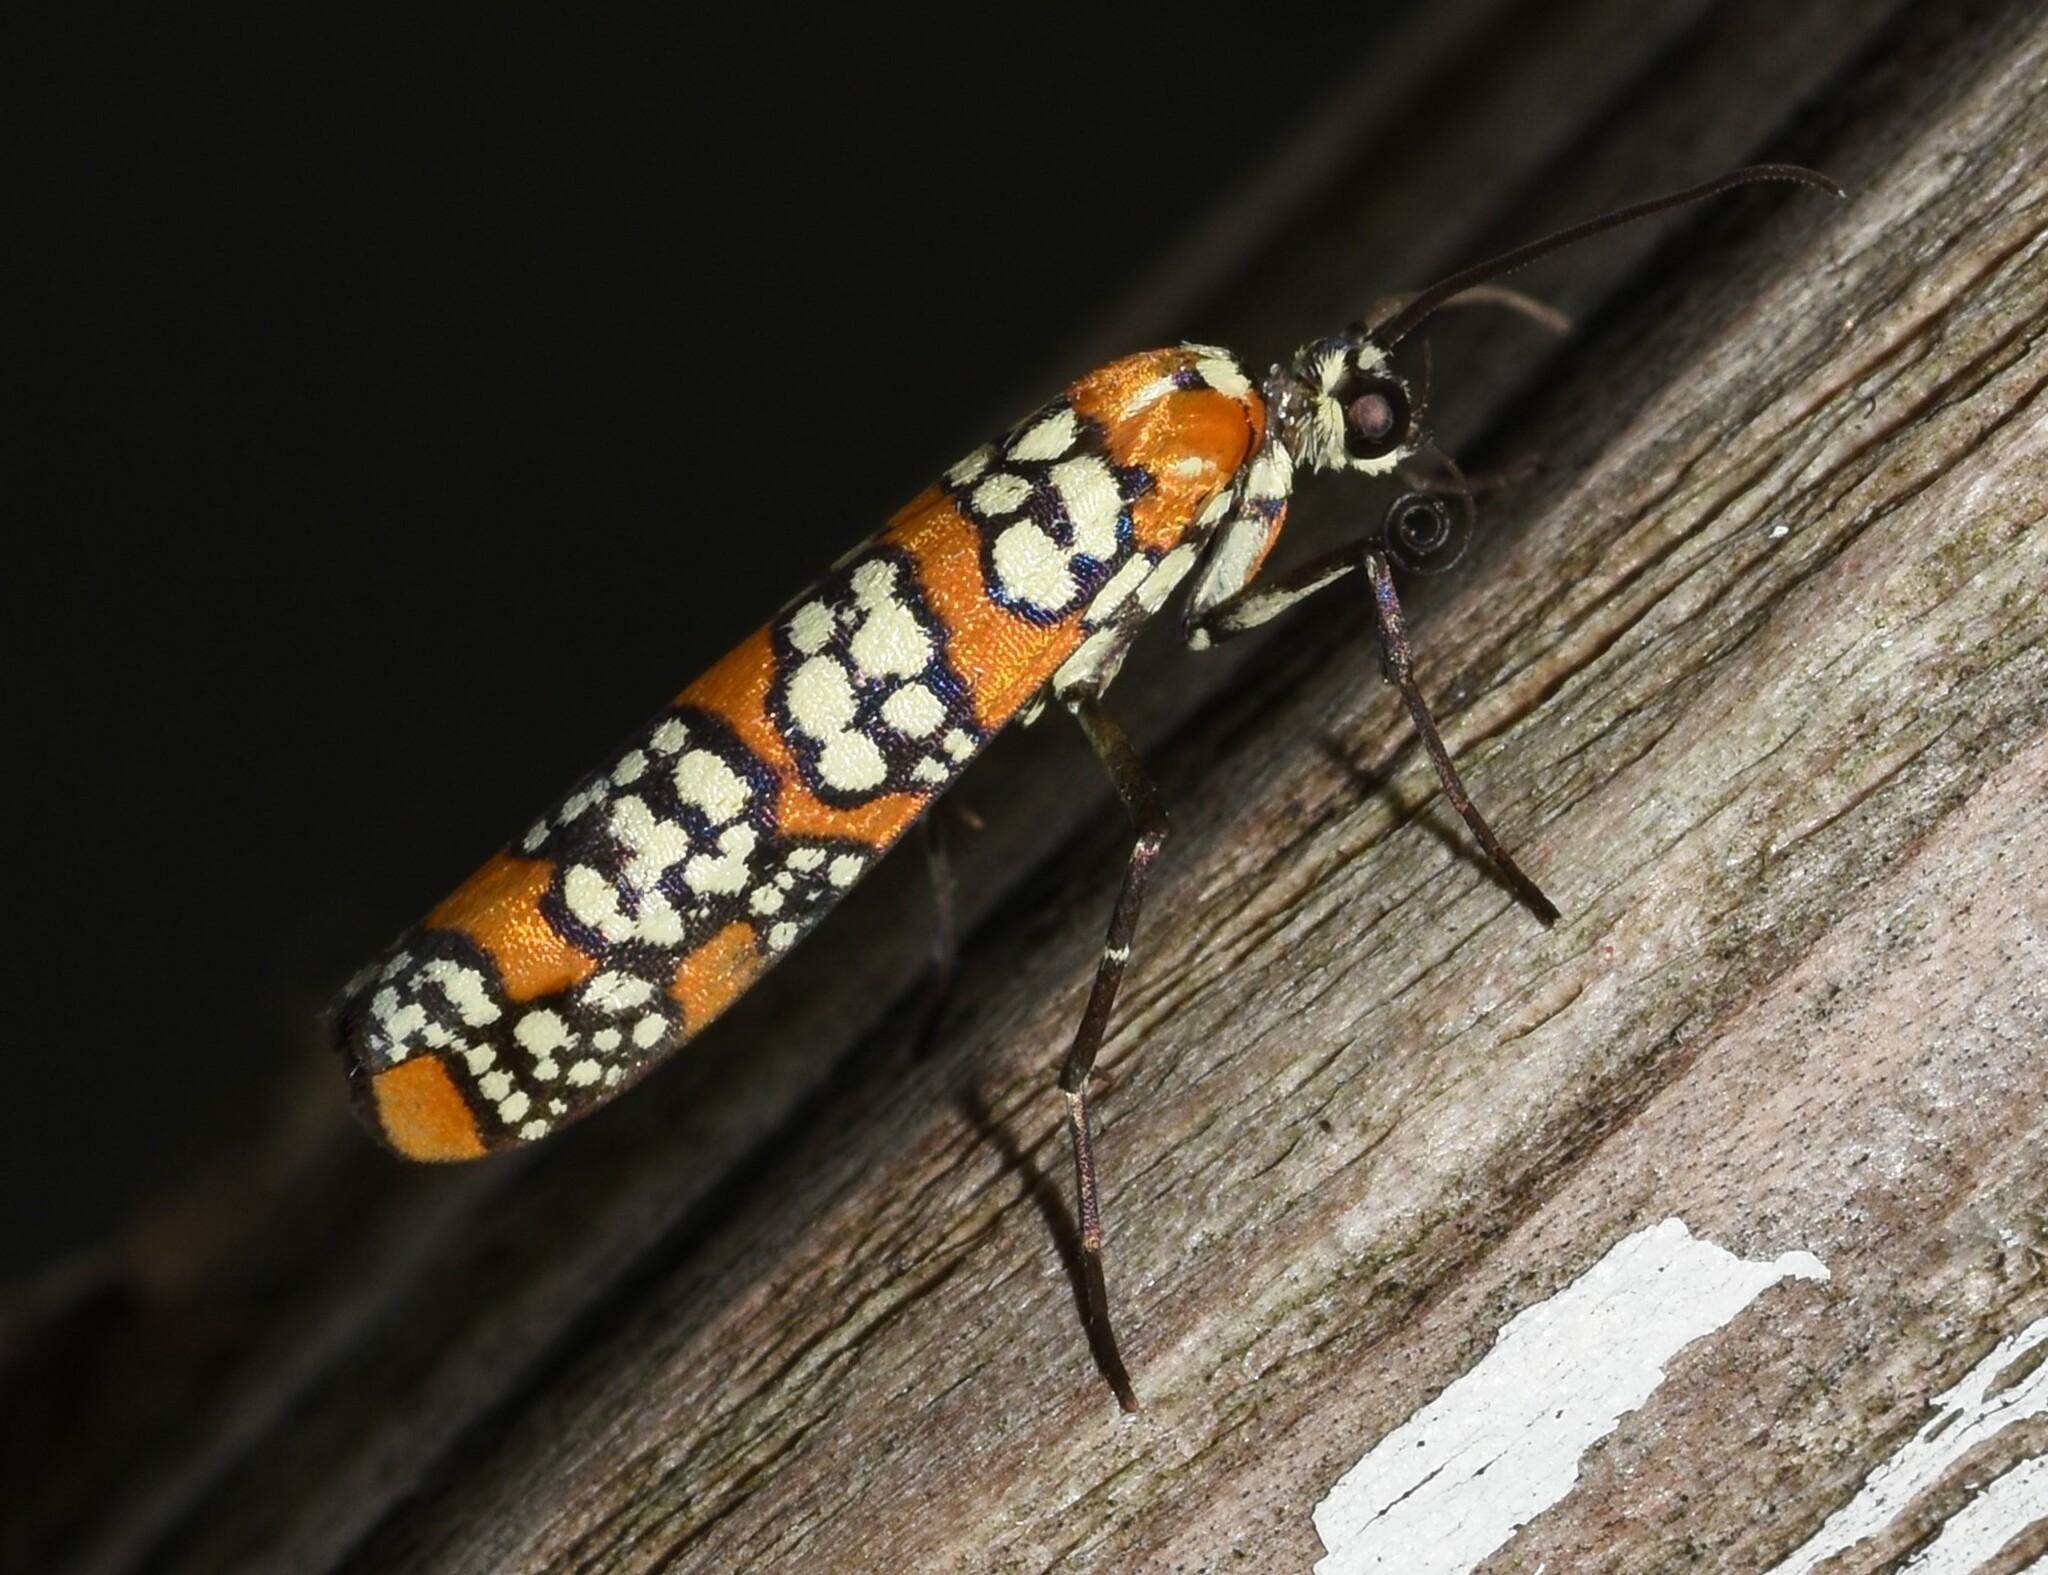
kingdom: Animalia
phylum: Arthropoda
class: Insecta
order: Lepidoptera
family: Attevidae
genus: Atteva
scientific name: Atteva punctella
